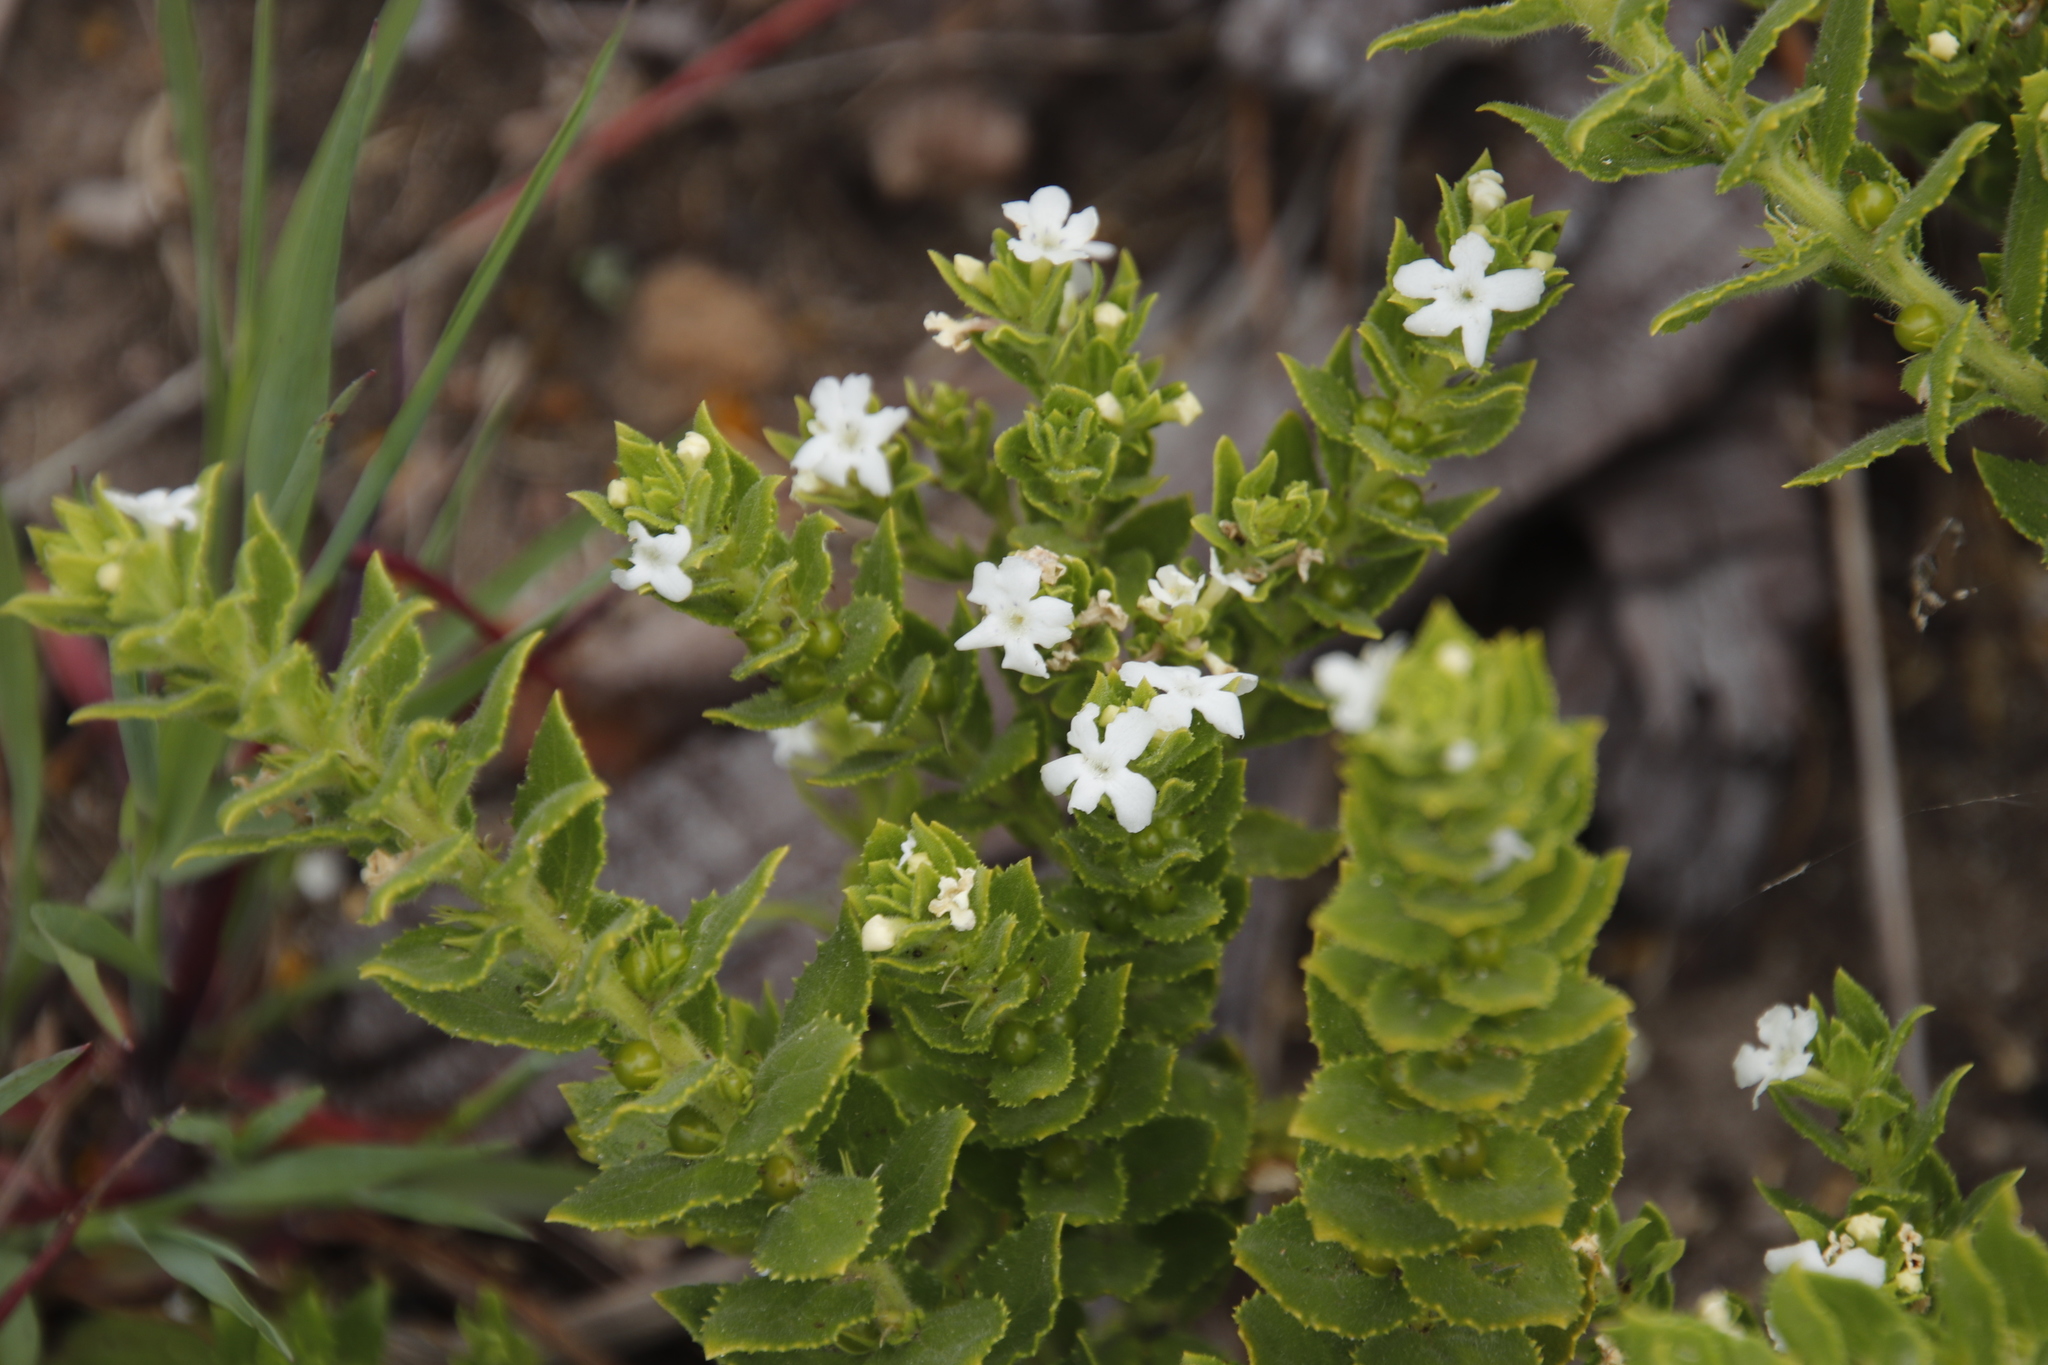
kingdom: Plantae
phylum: Tracheophyta
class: Magnoliopsida
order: Lamiales
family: Scrophulariaceae
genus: Oftia
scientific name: Oftia africana
